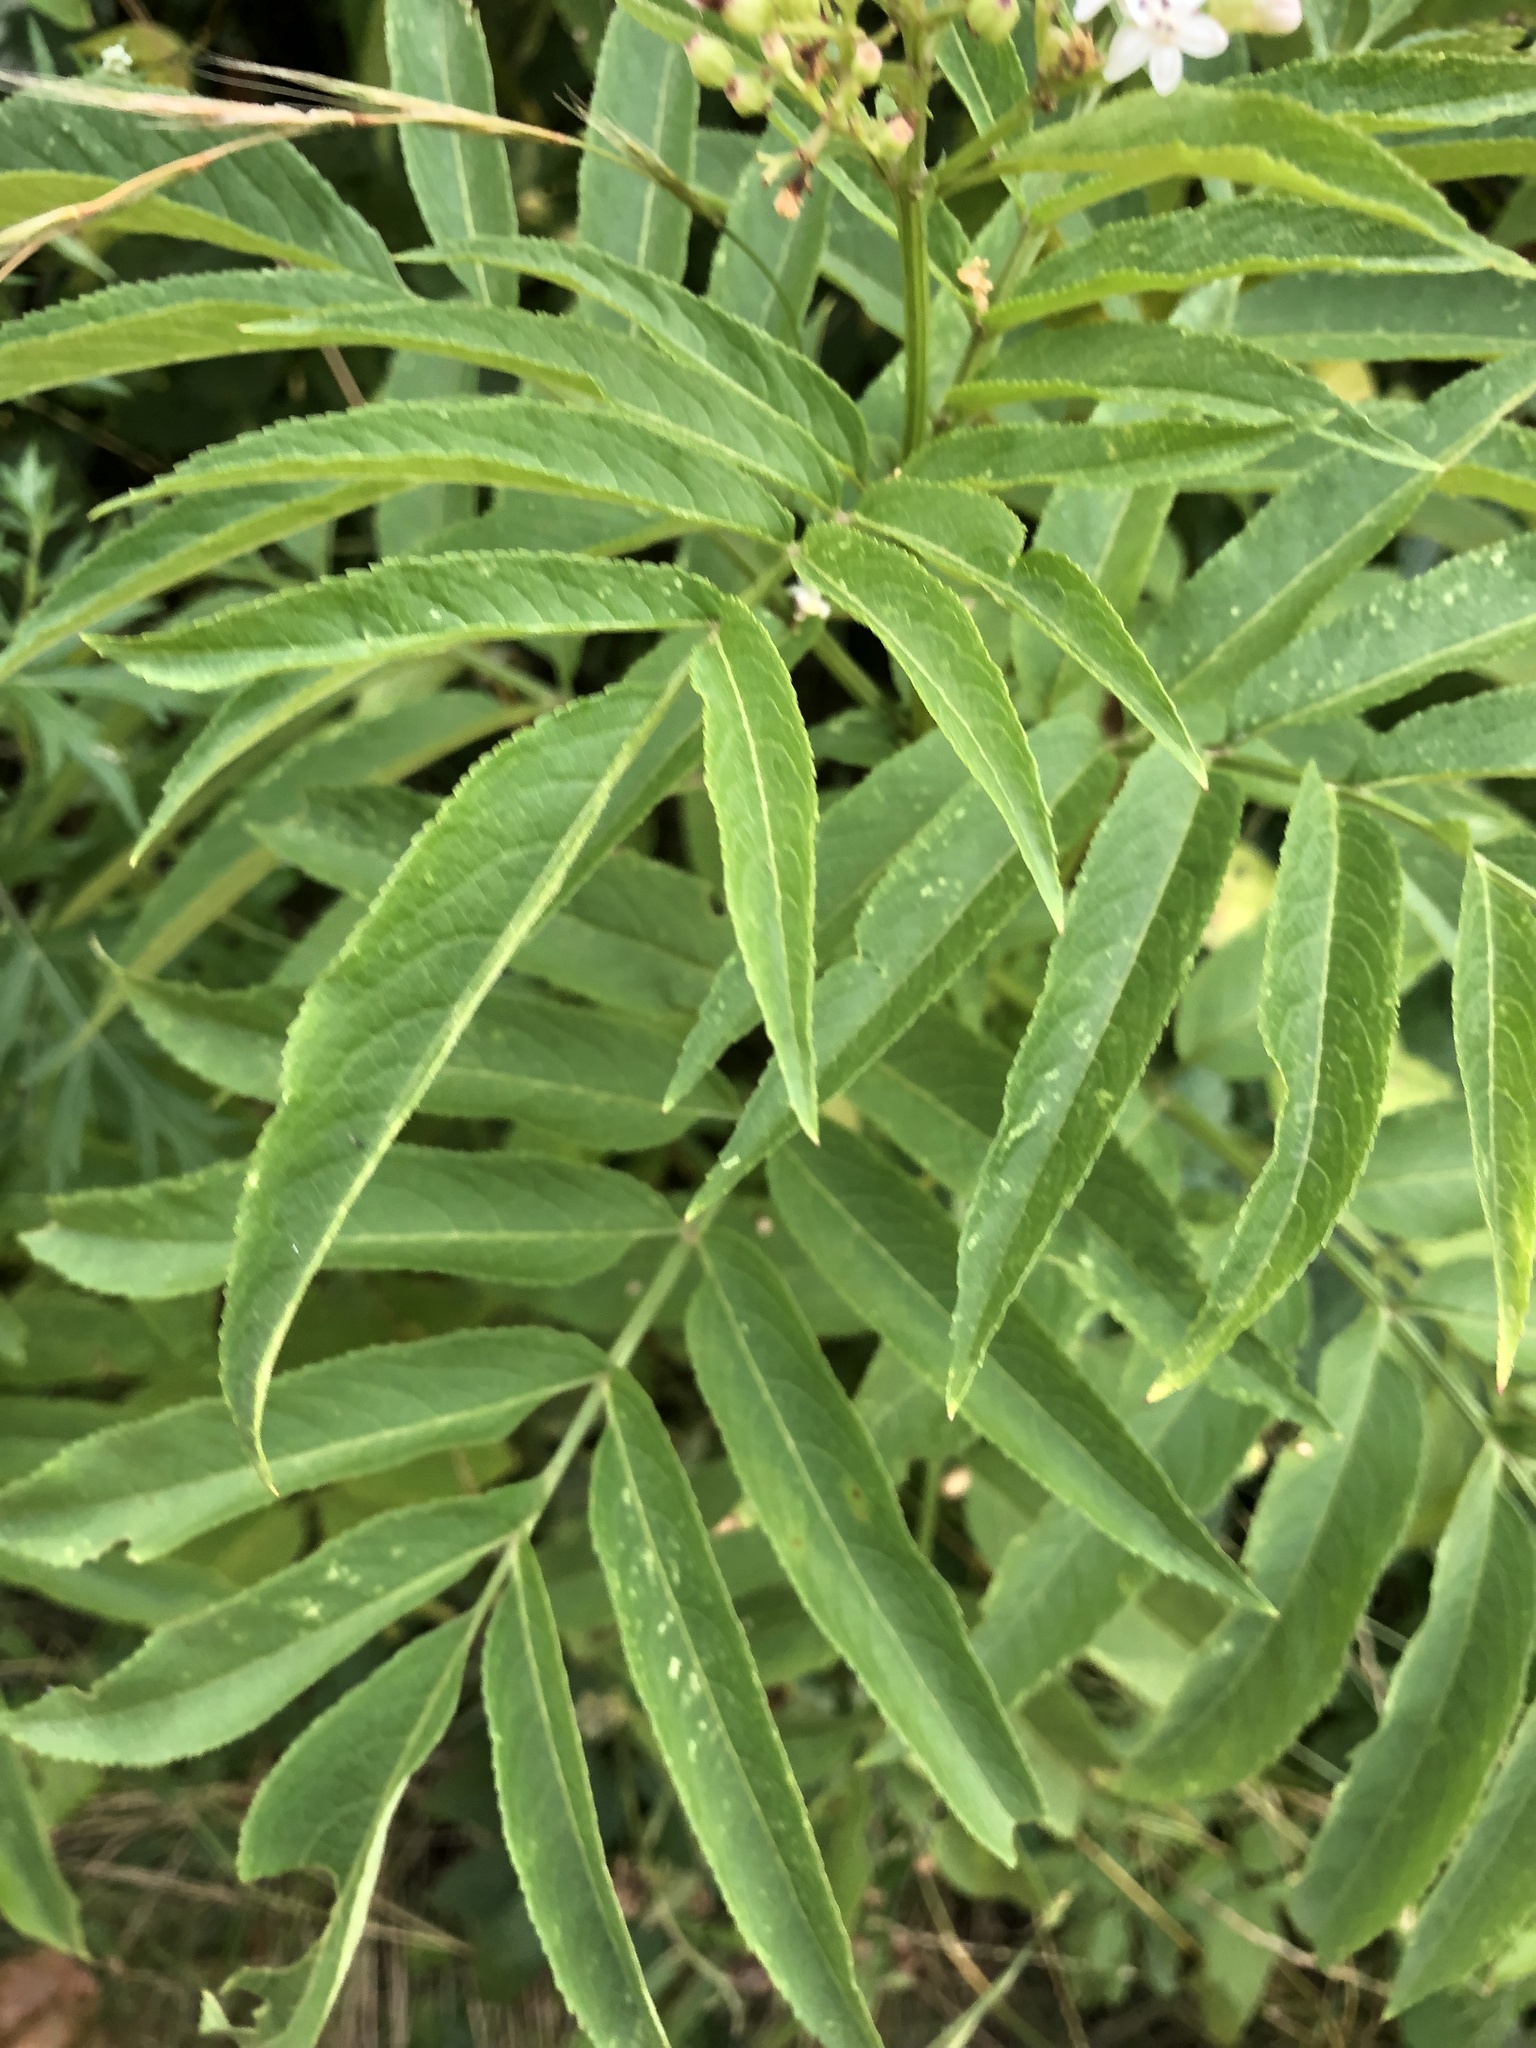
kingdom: Plantae
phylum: Tracheophyta
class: Magnoliopsida
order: Dipsacales
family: Viburnaceae
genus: Sambucus
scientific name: Sambucus ebulus
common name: Dwarf elder
